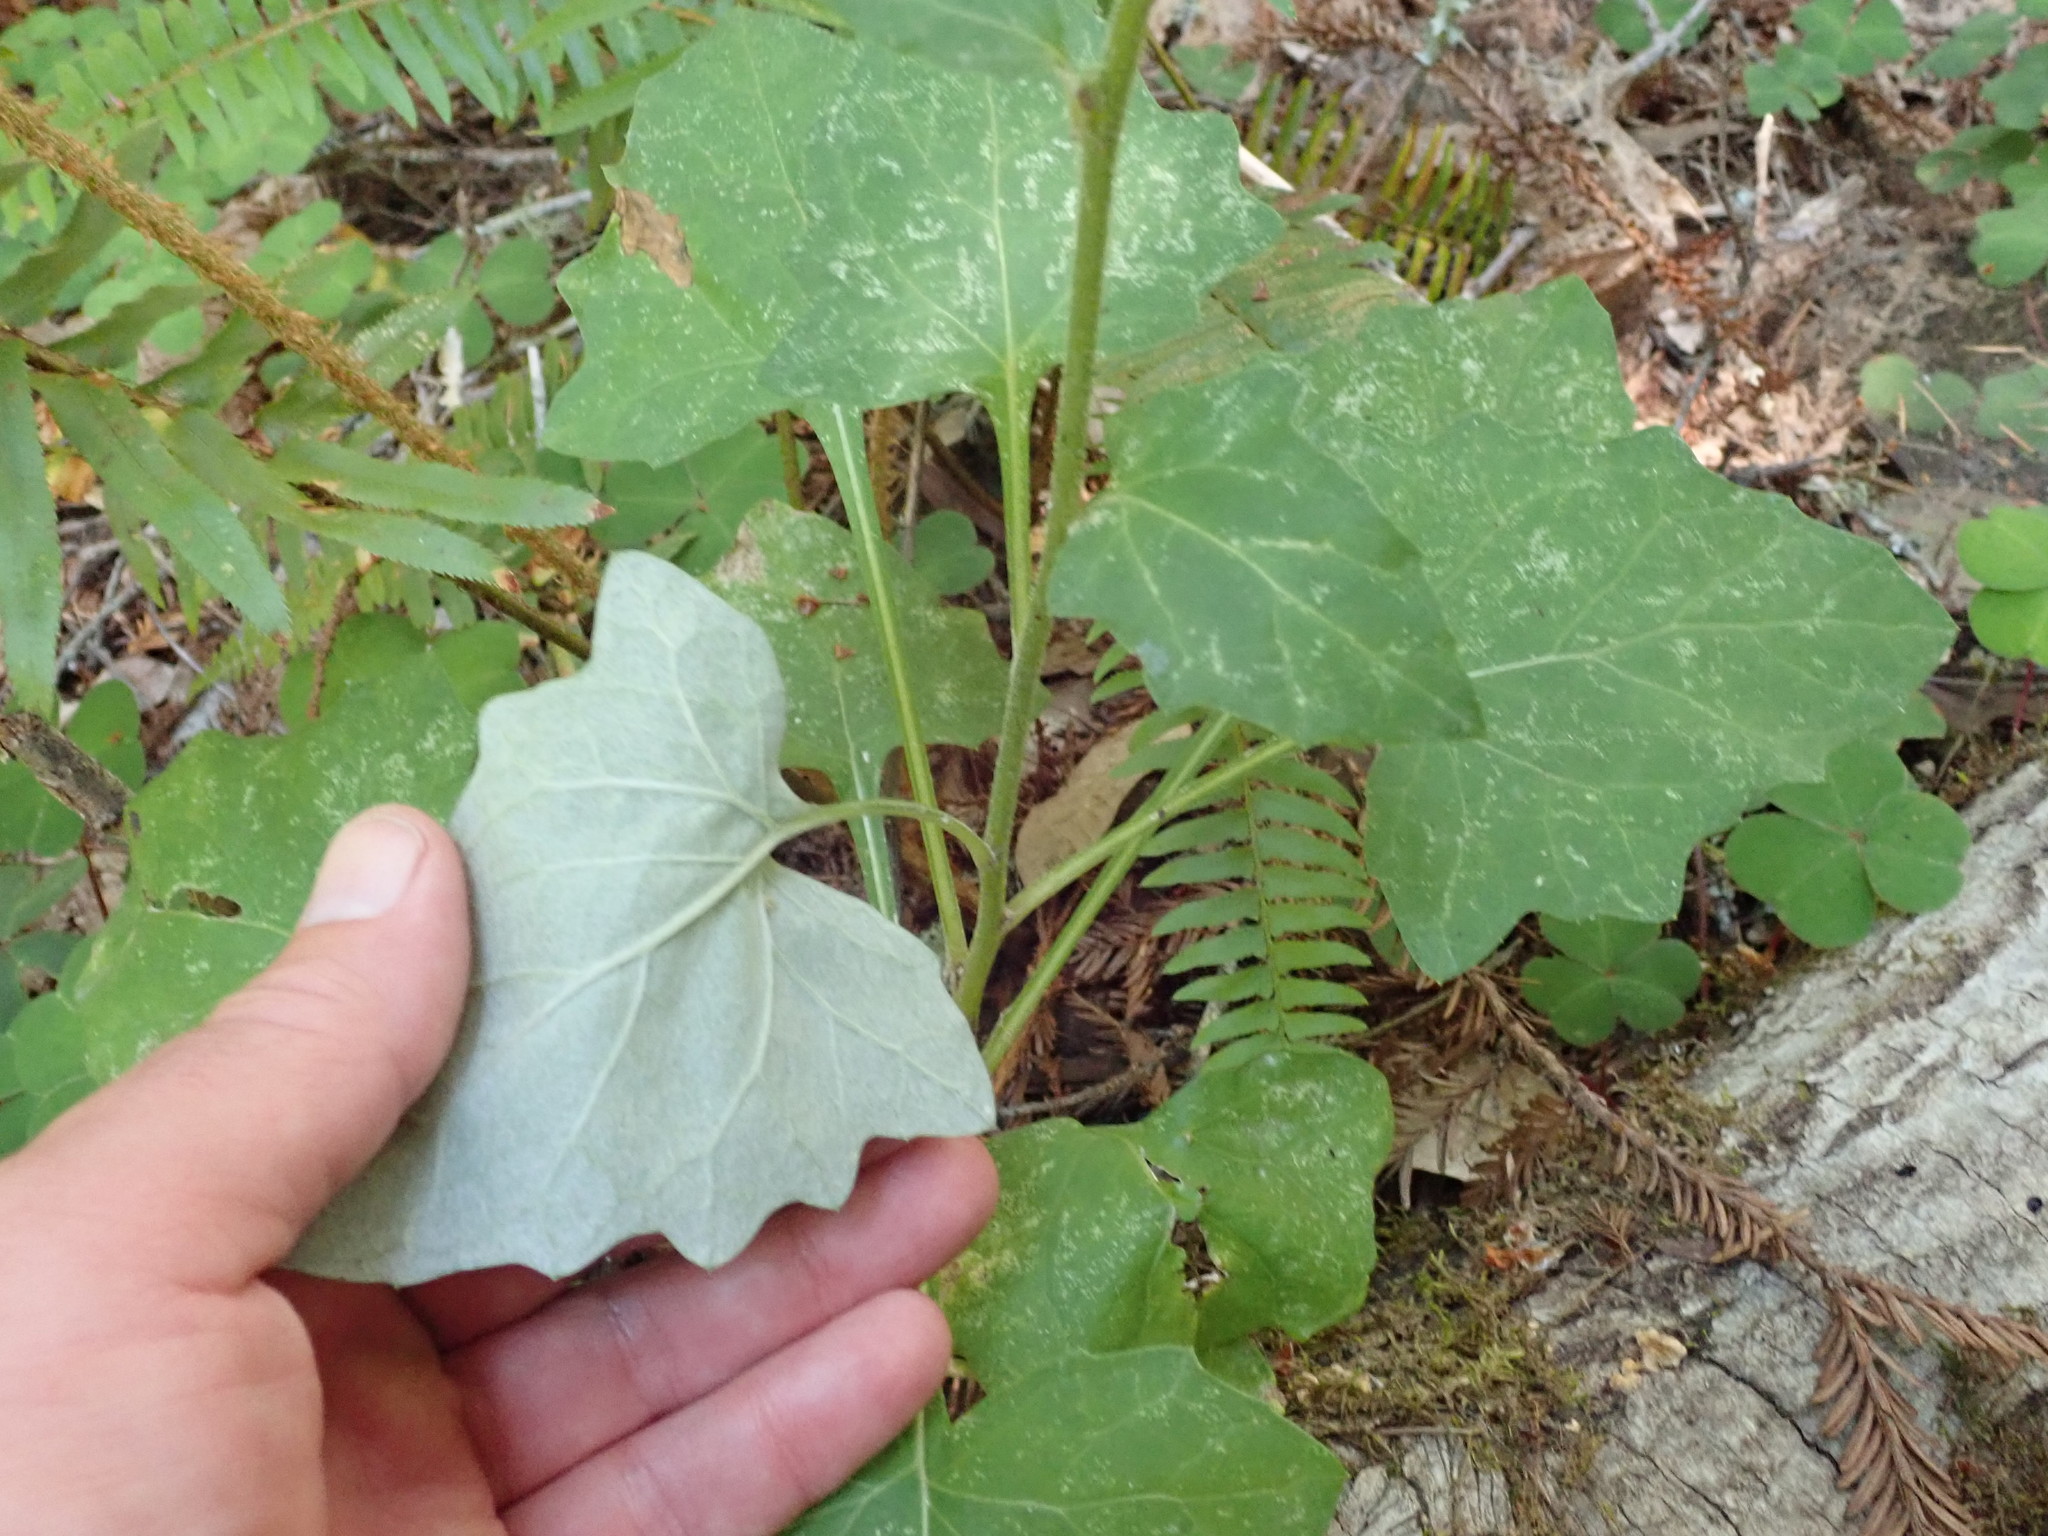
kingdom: Plantae
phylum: Tracheophyta
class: Magnoliopsida
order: Asterales
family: Asteraceae
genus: Adenocaulon
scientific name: Adenocaulon bicolor
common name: Trailplant
